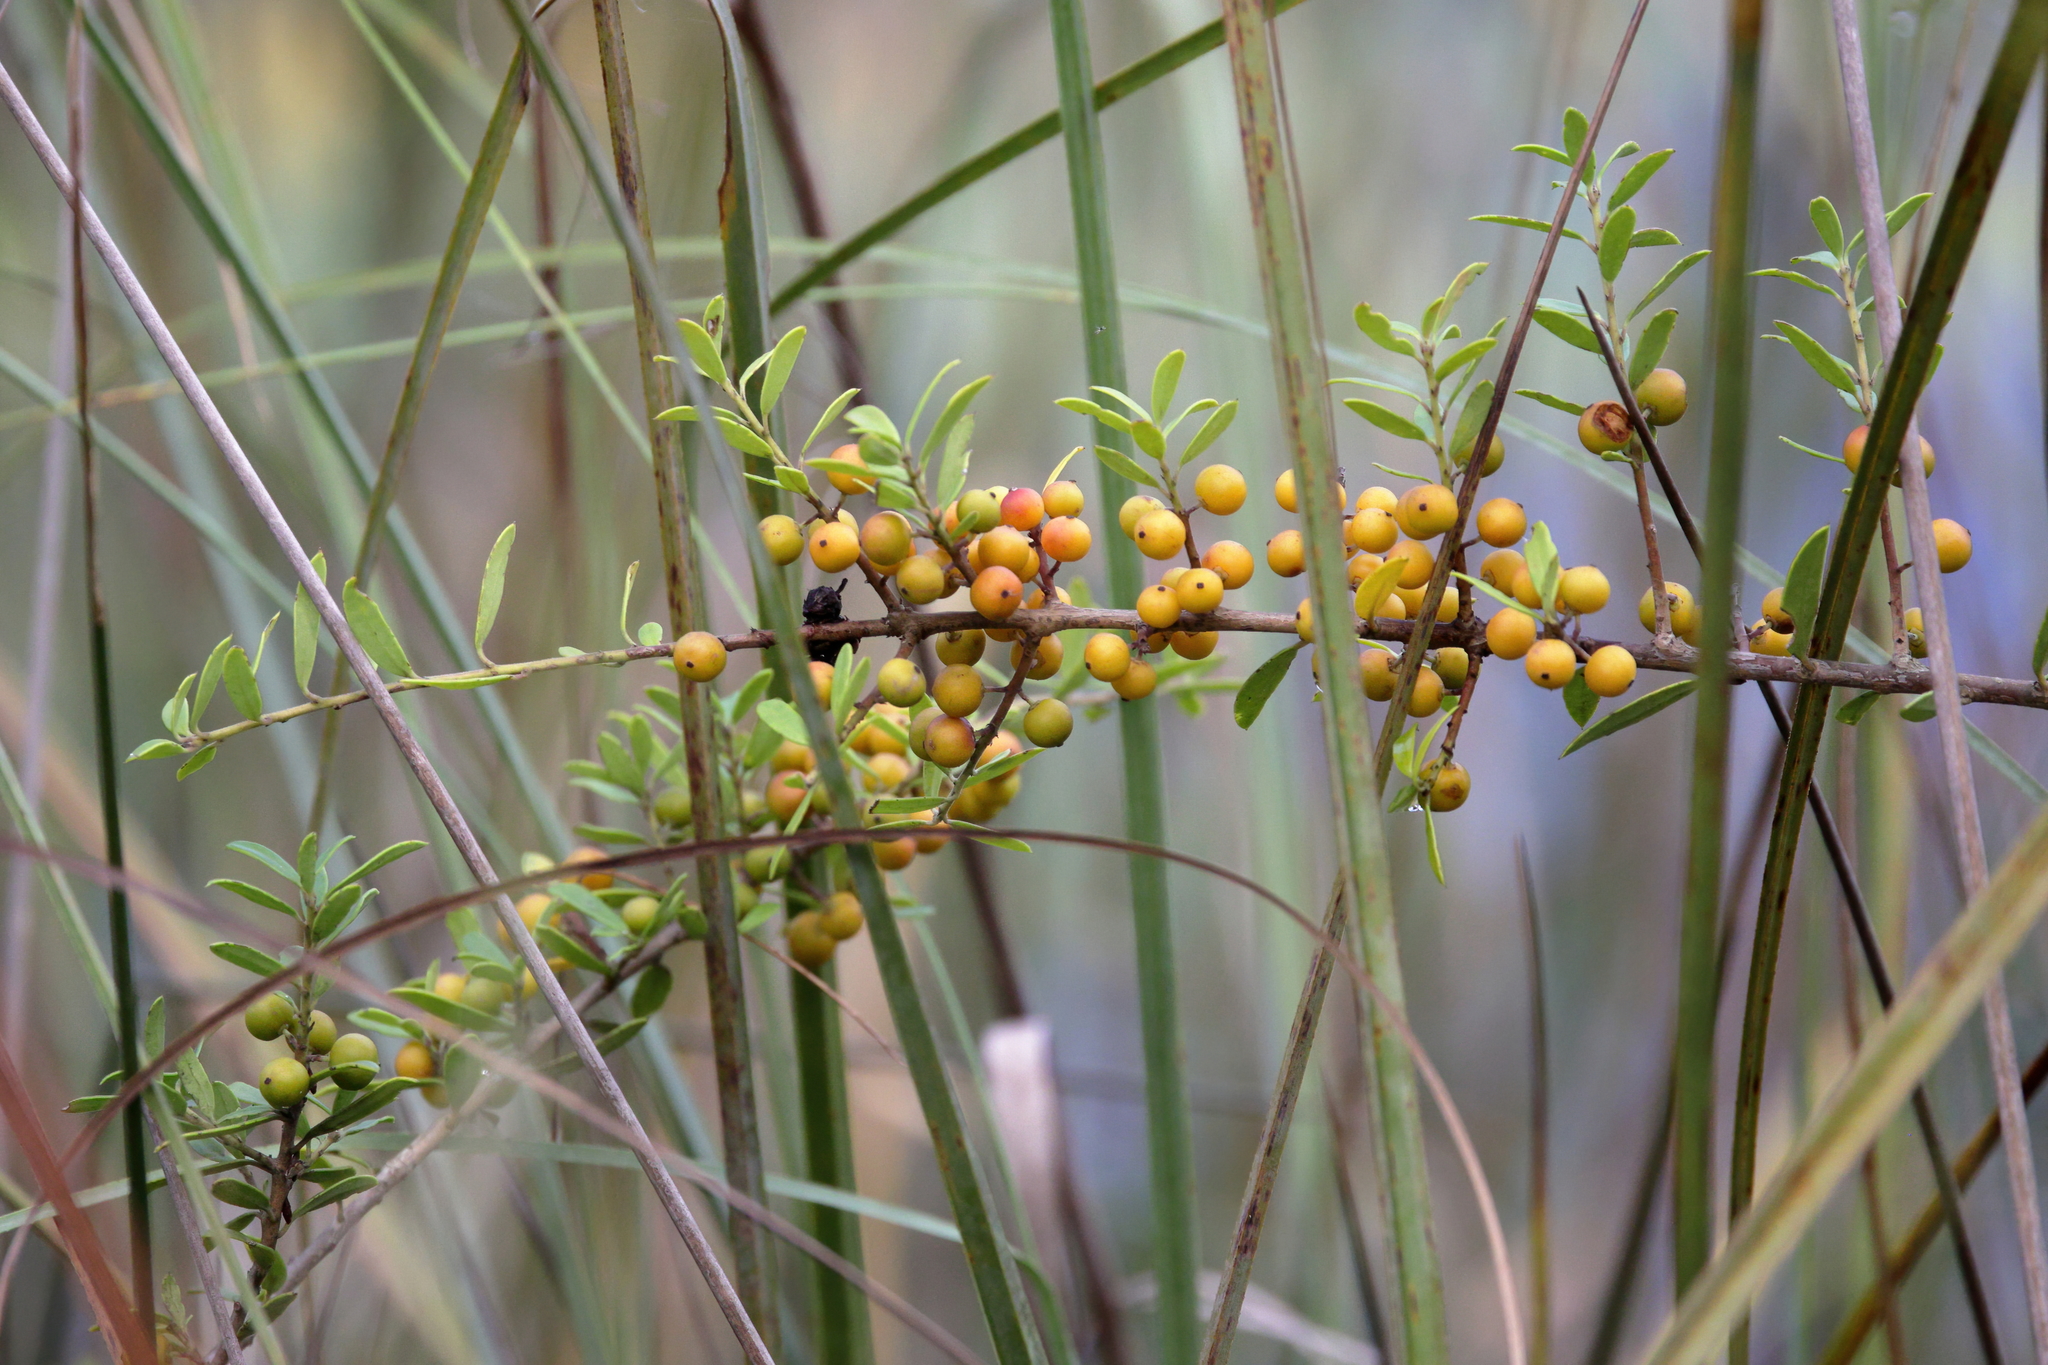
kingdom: Plantae
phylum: Tracheophyta
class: Magnoliopsida
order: Aquifoliales
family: Aquifoliaceae
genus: Ilex
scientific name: Ilex myrtifolia
